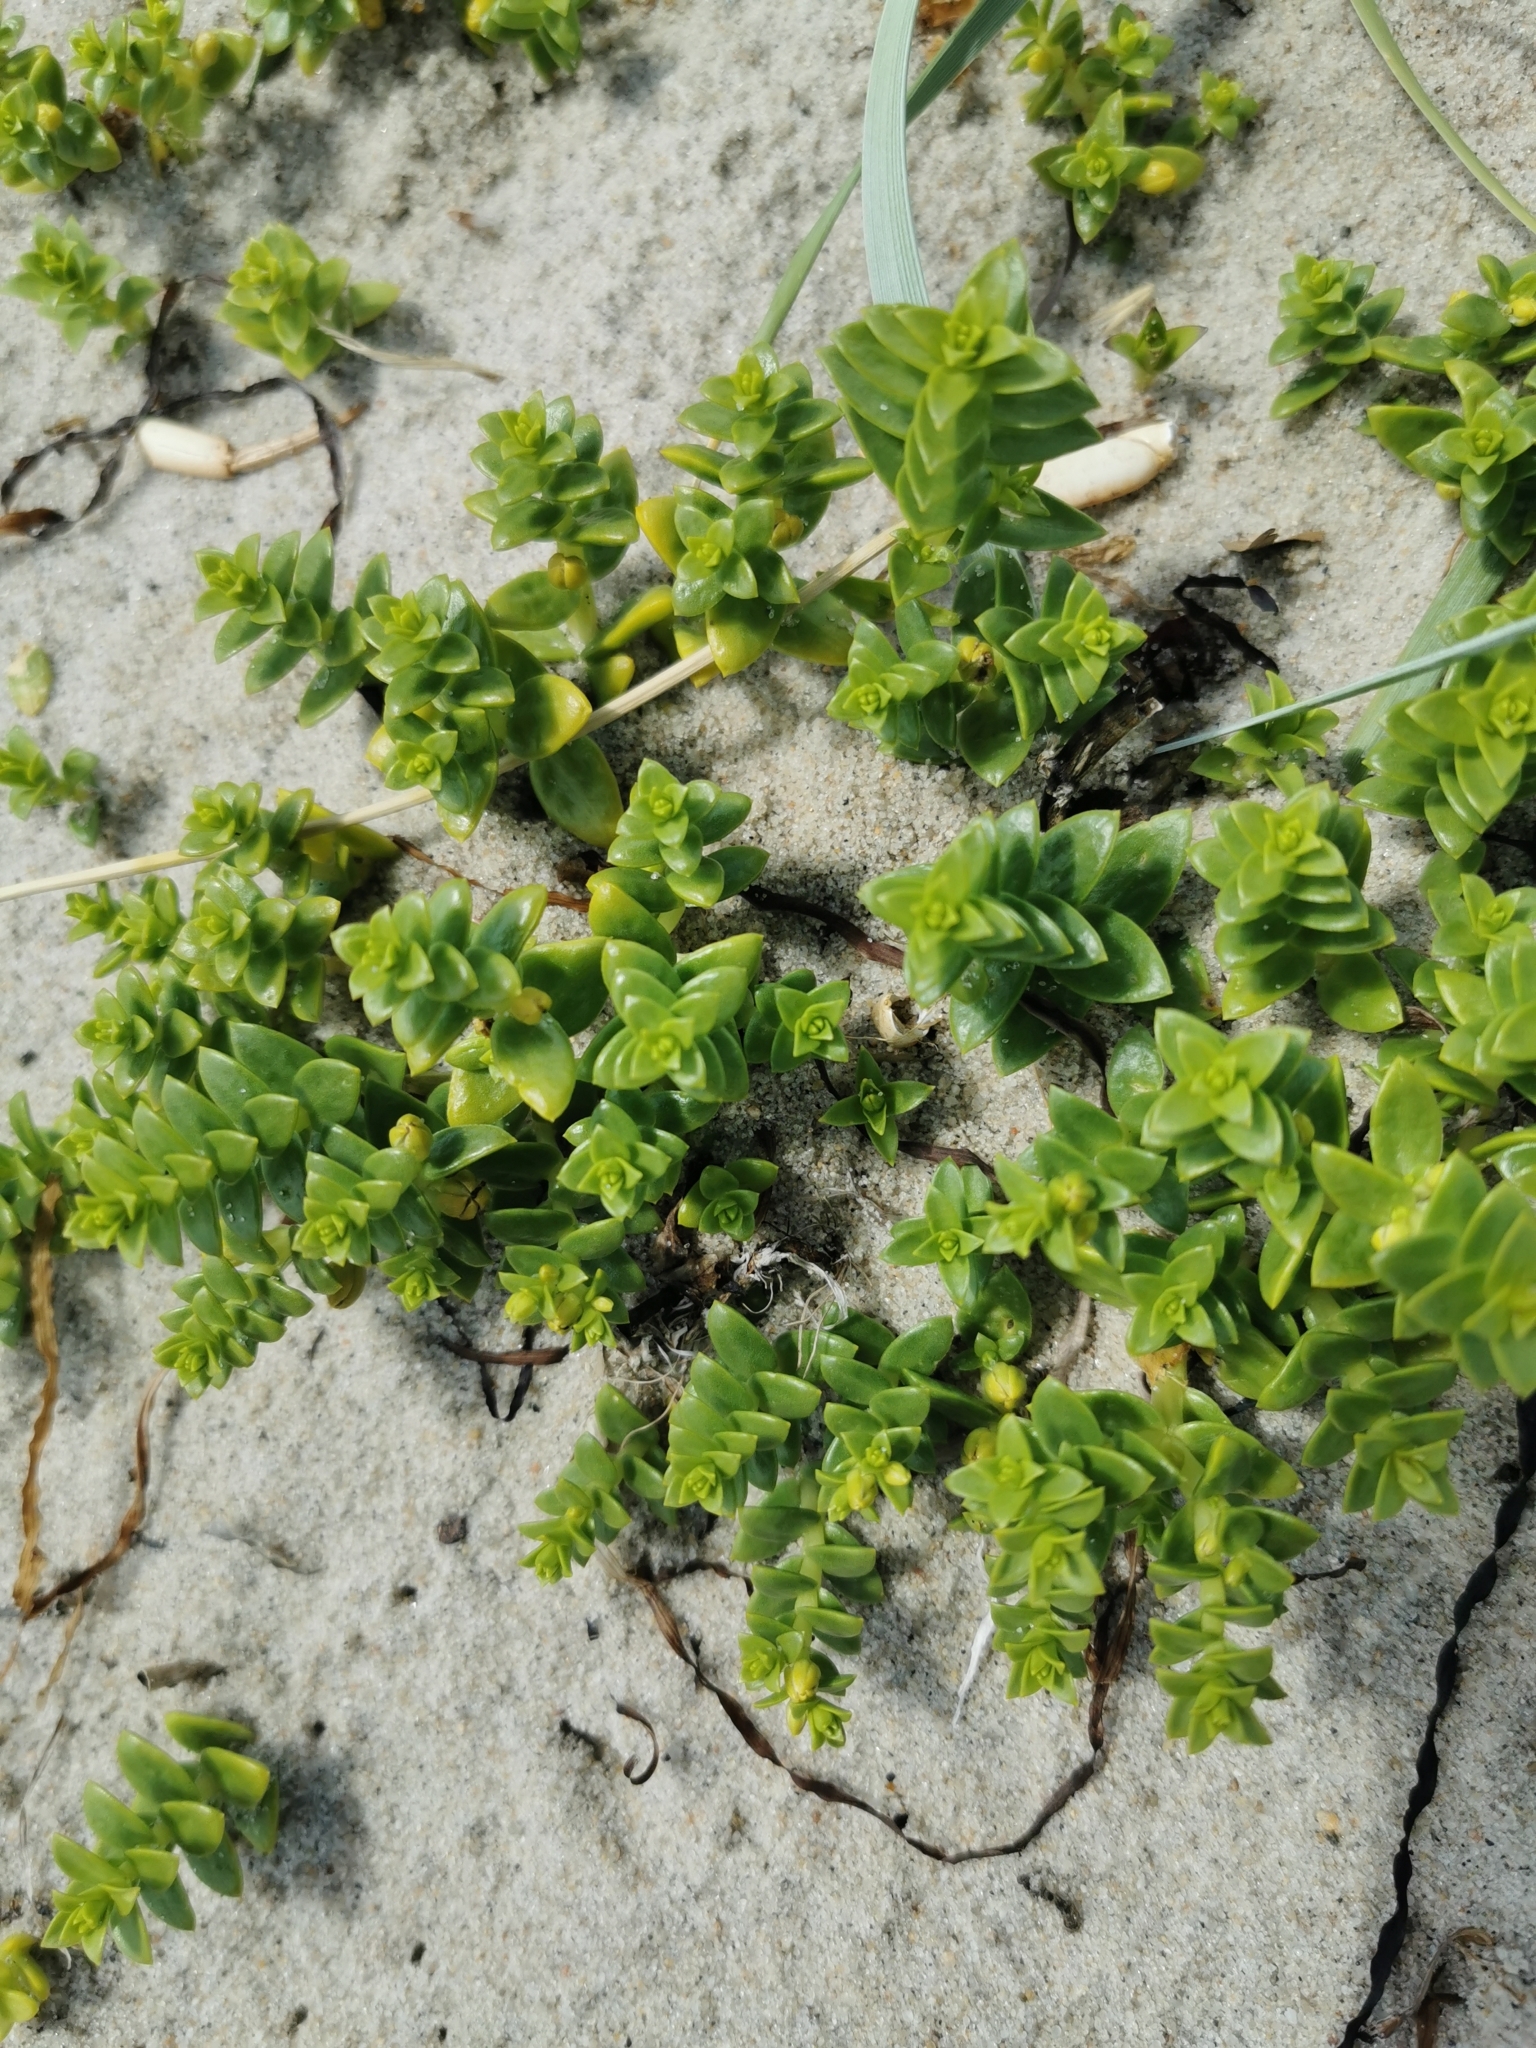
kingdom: Plantae
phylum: Tracheophyta
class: Magnoliopsida
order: Caryophyllales
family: Caryophyllaceae
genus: Honckenya
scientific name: Honckenya peploides
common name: Sea sandwort
